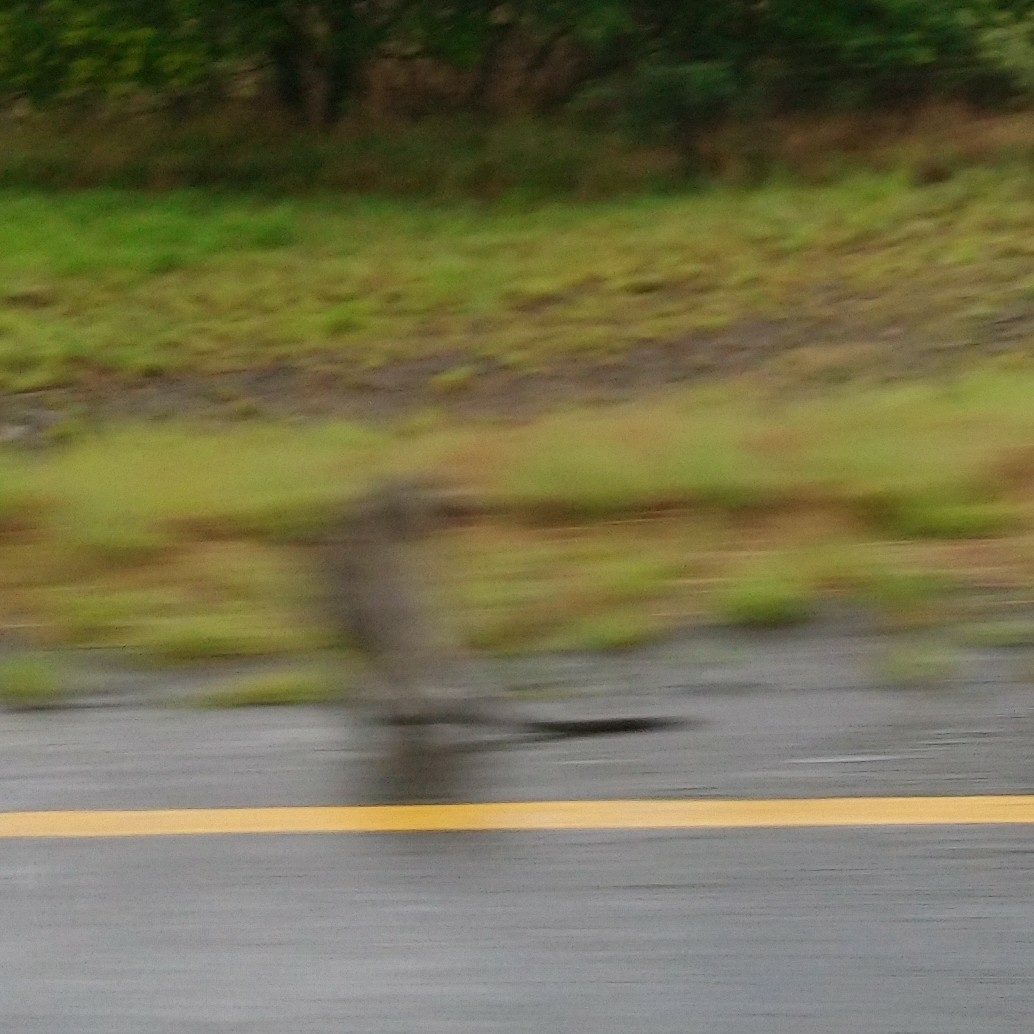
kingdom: Animalia
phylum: Chordata
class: Mammalia
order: Primates
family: Cercopithecidae
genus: Chlorocebus
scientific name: Chlorocebus pygerythrus
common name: Vervet monkey
